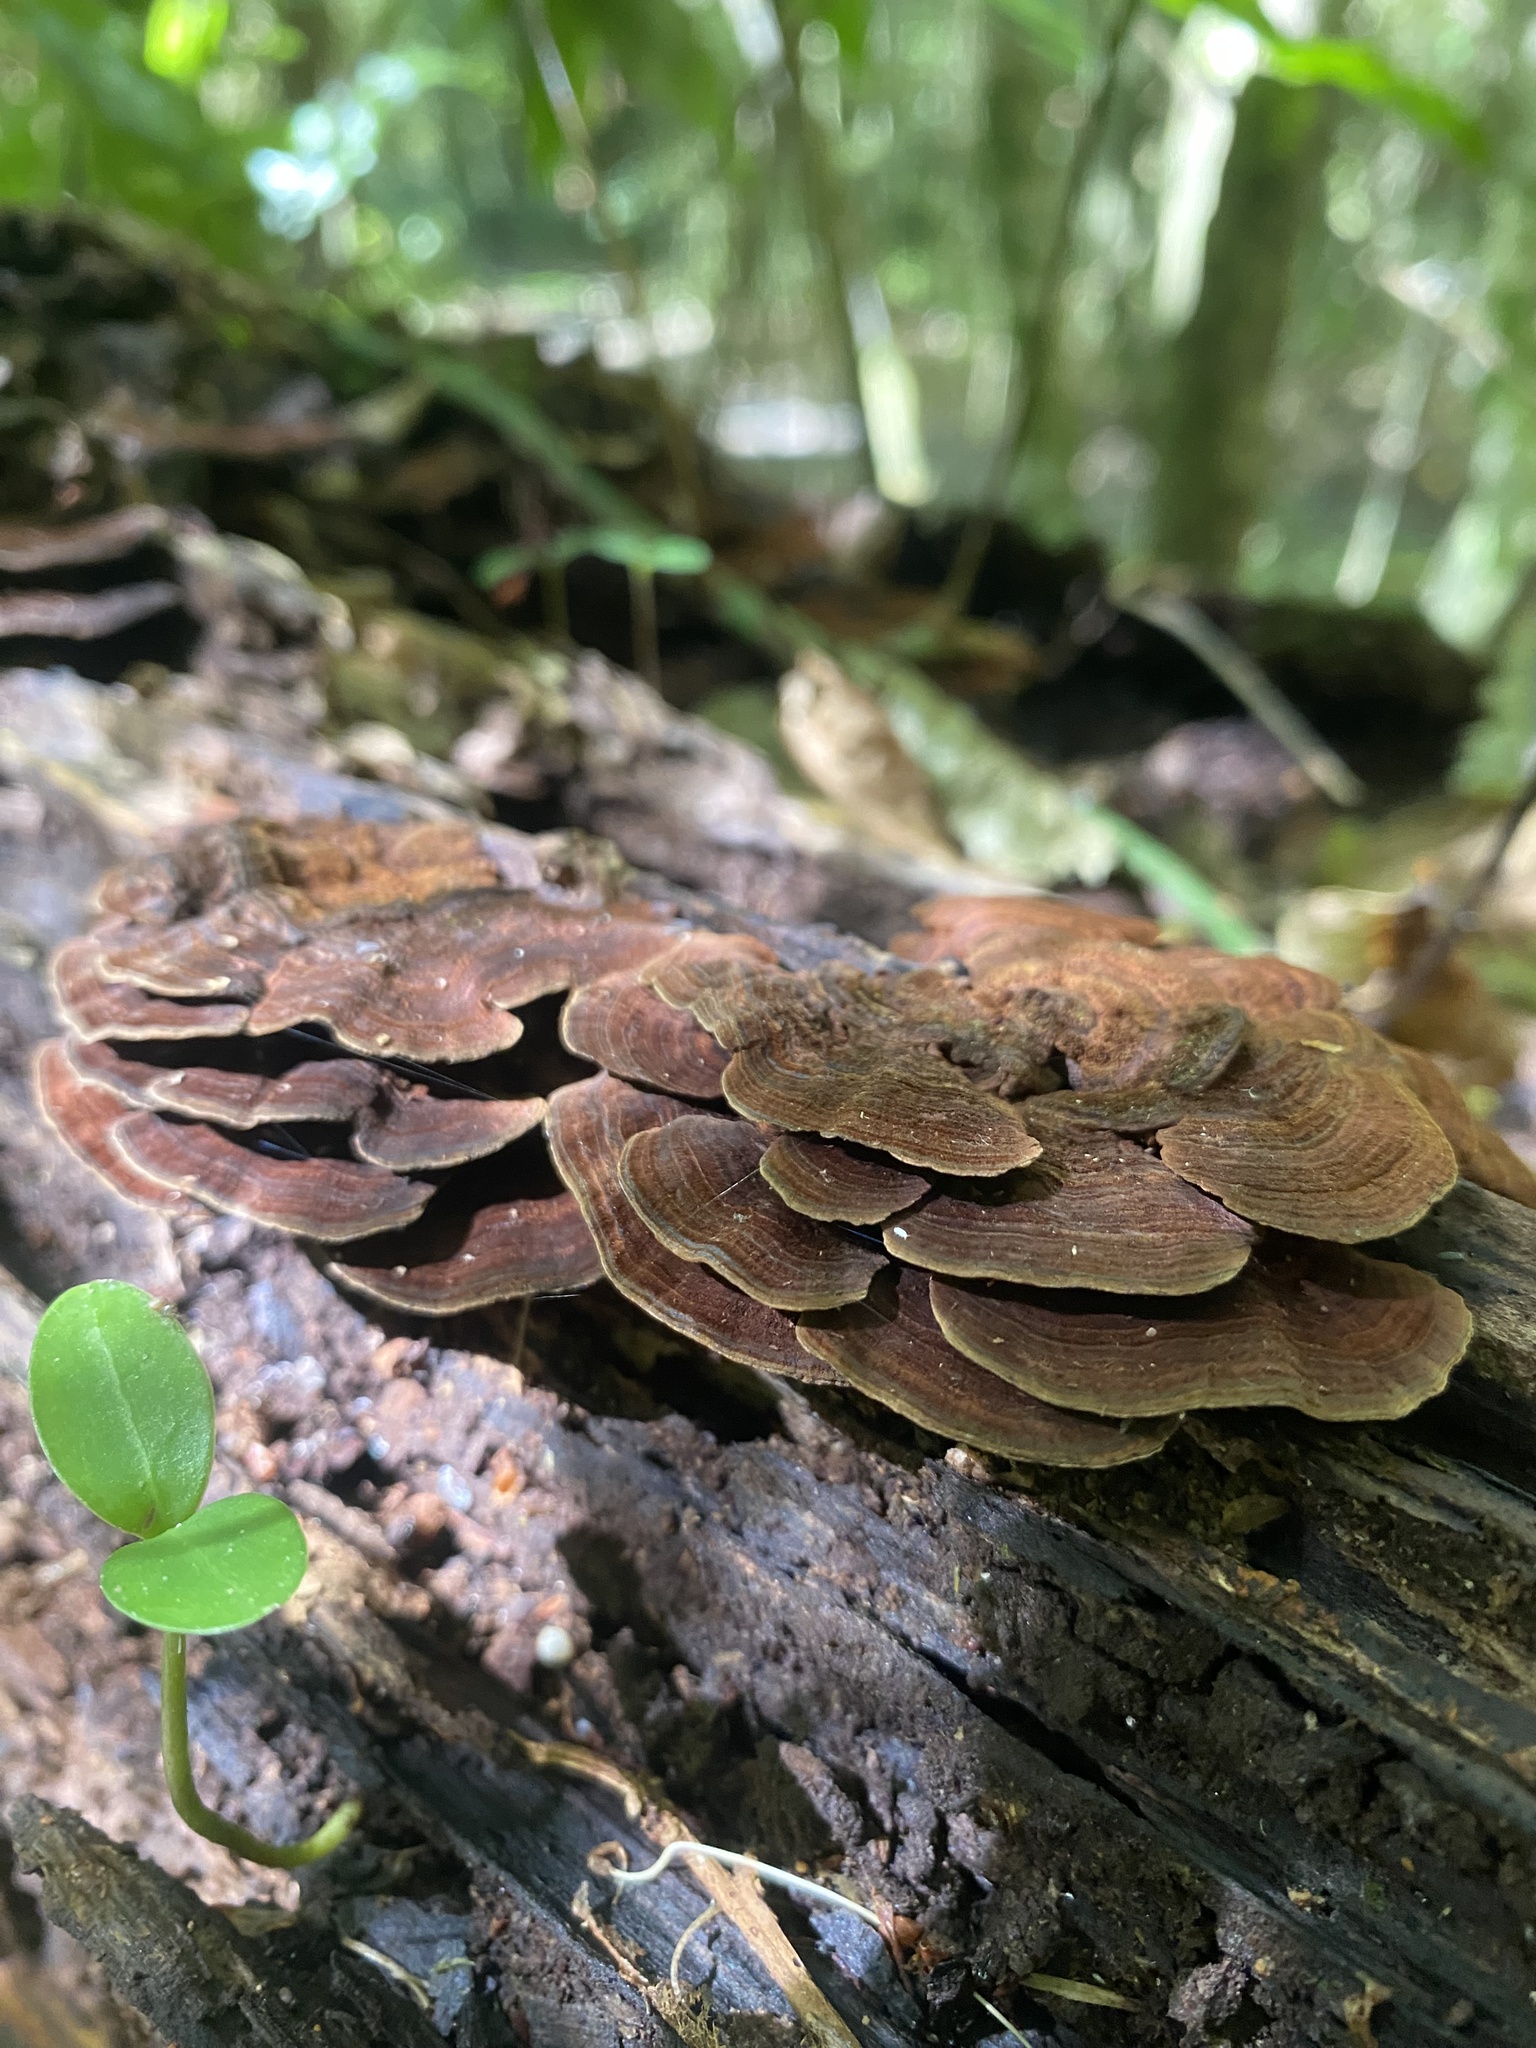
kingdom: Fungi
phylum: Basidiomycota
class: Agaricomycetes
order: Hymenochaetales
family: Hymenochaetaceae
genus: Hymenochaete
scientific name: Hymenochaete microcycla
